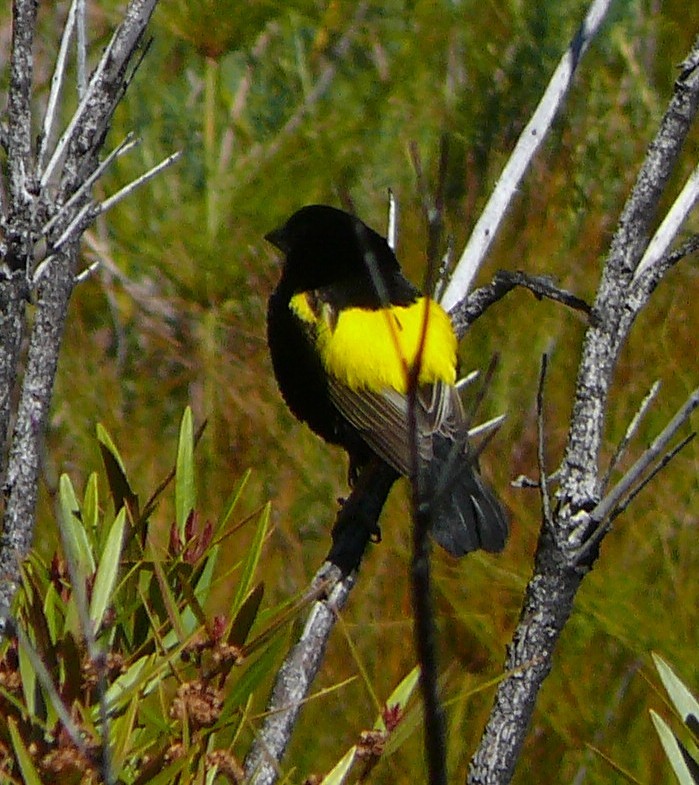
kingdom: Animalia
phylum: Chordata
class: Aves
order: Passeriformes
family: Ploceidae
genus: Euplectes
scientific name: Euplectes capensis
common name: Yellow bishop
